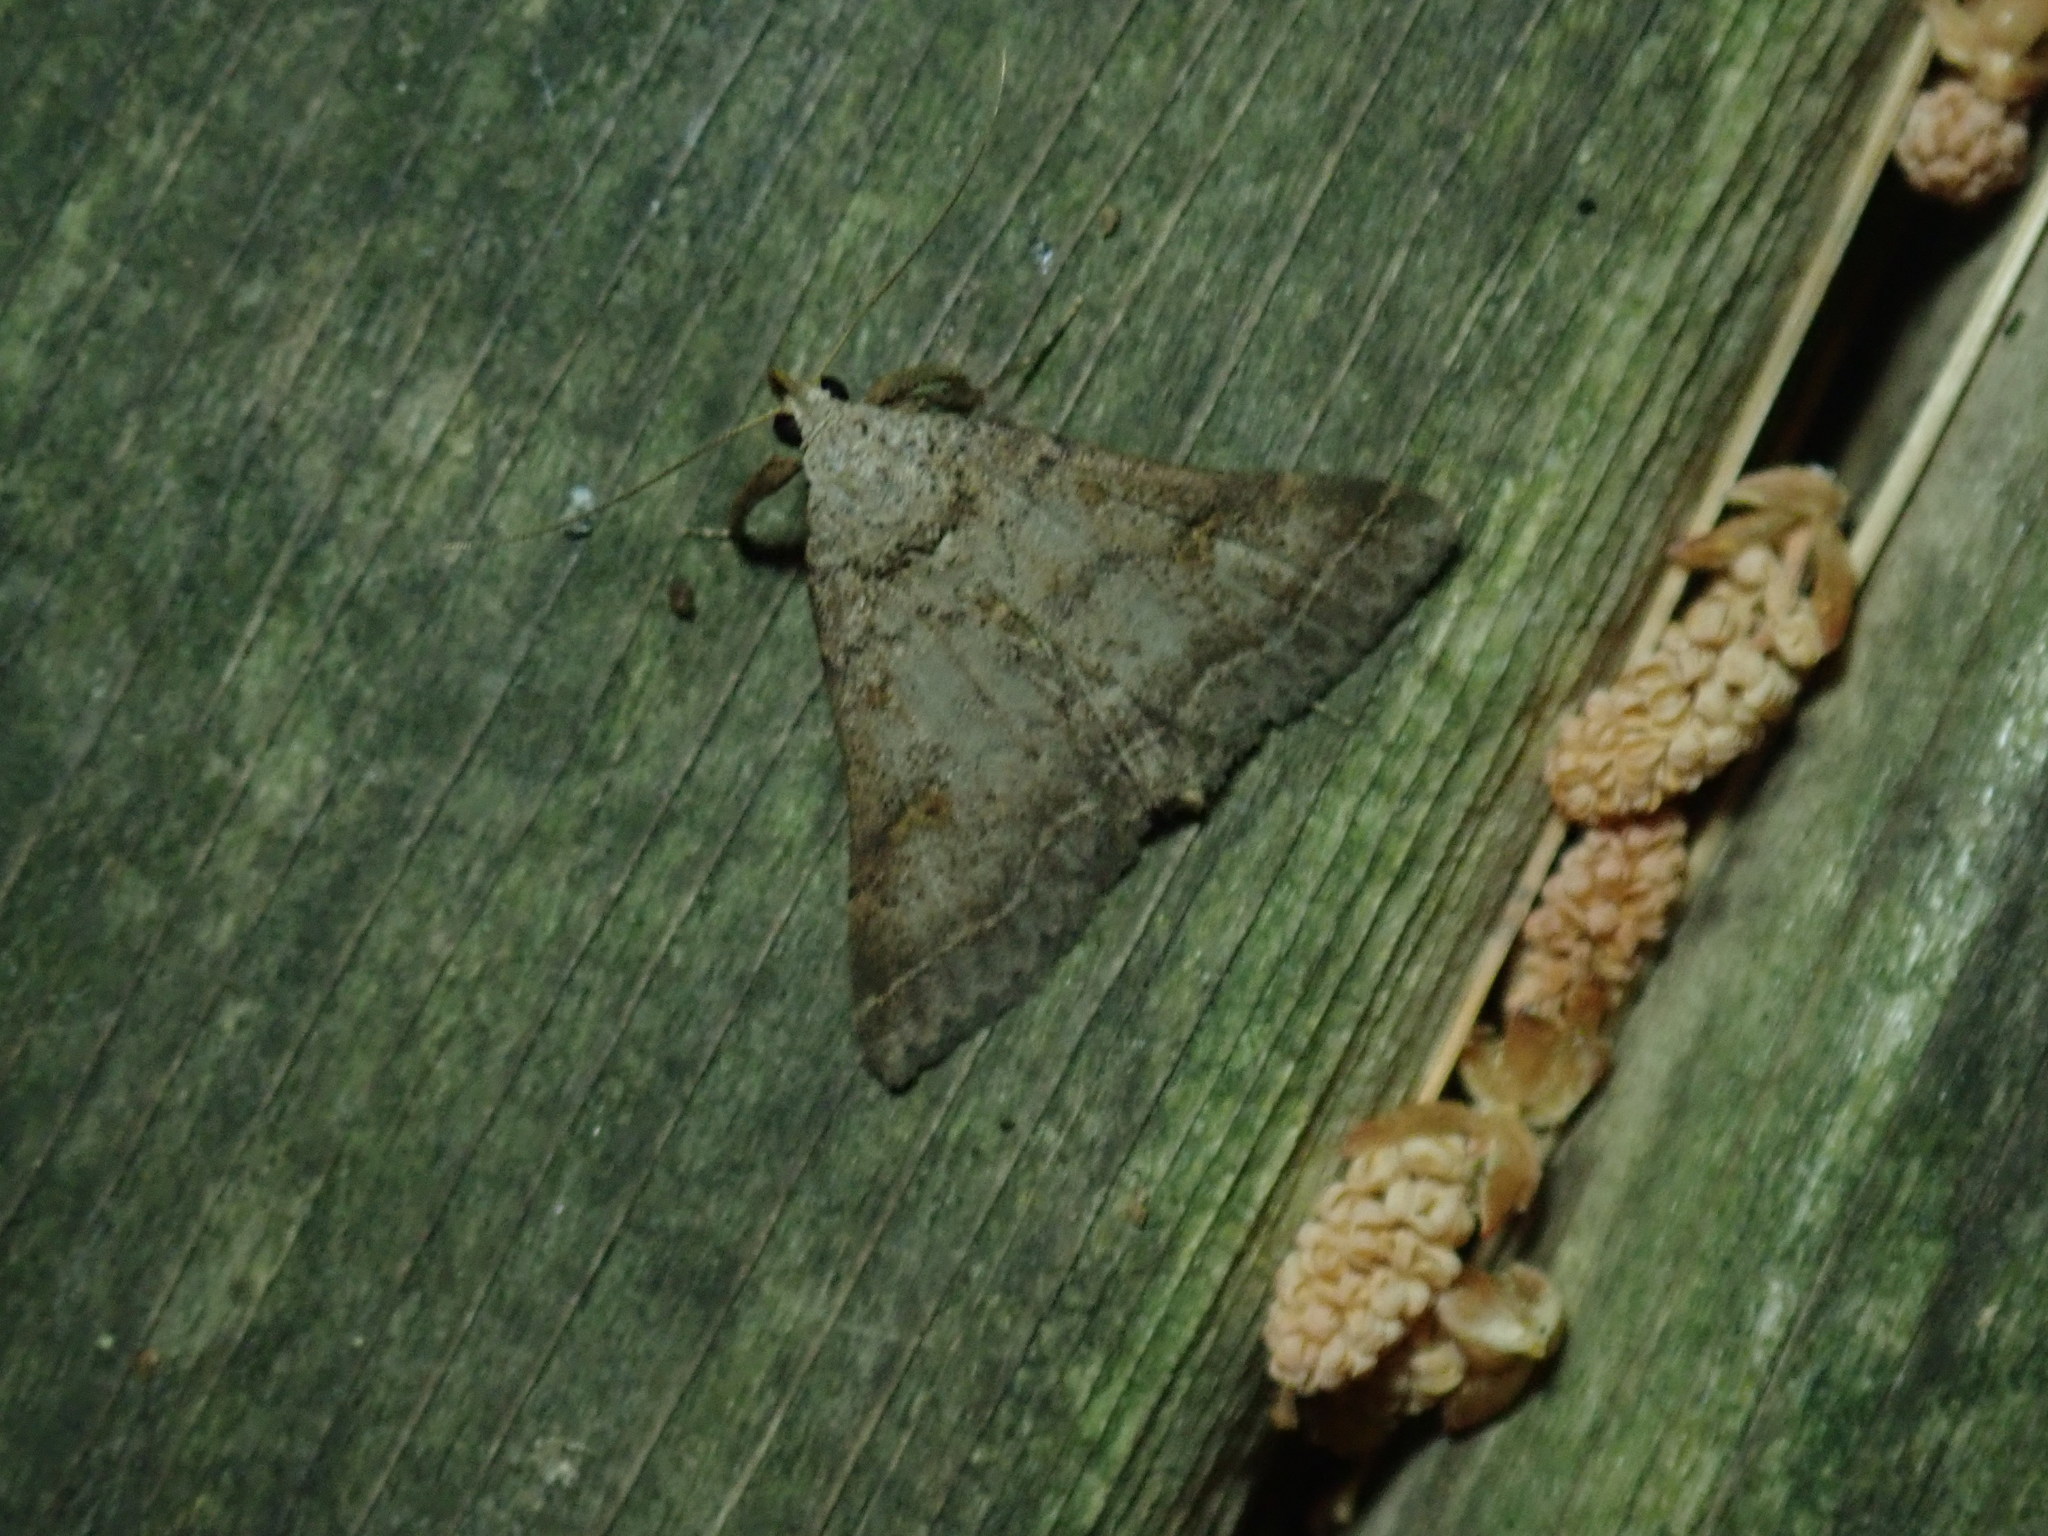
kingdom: Animalia
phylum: Arthropoda
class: Insecta
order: Lepidoptera
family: Erebidae
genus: Bleptina
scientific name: Bleptina caradrinalis
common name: Bent-winged owlet
